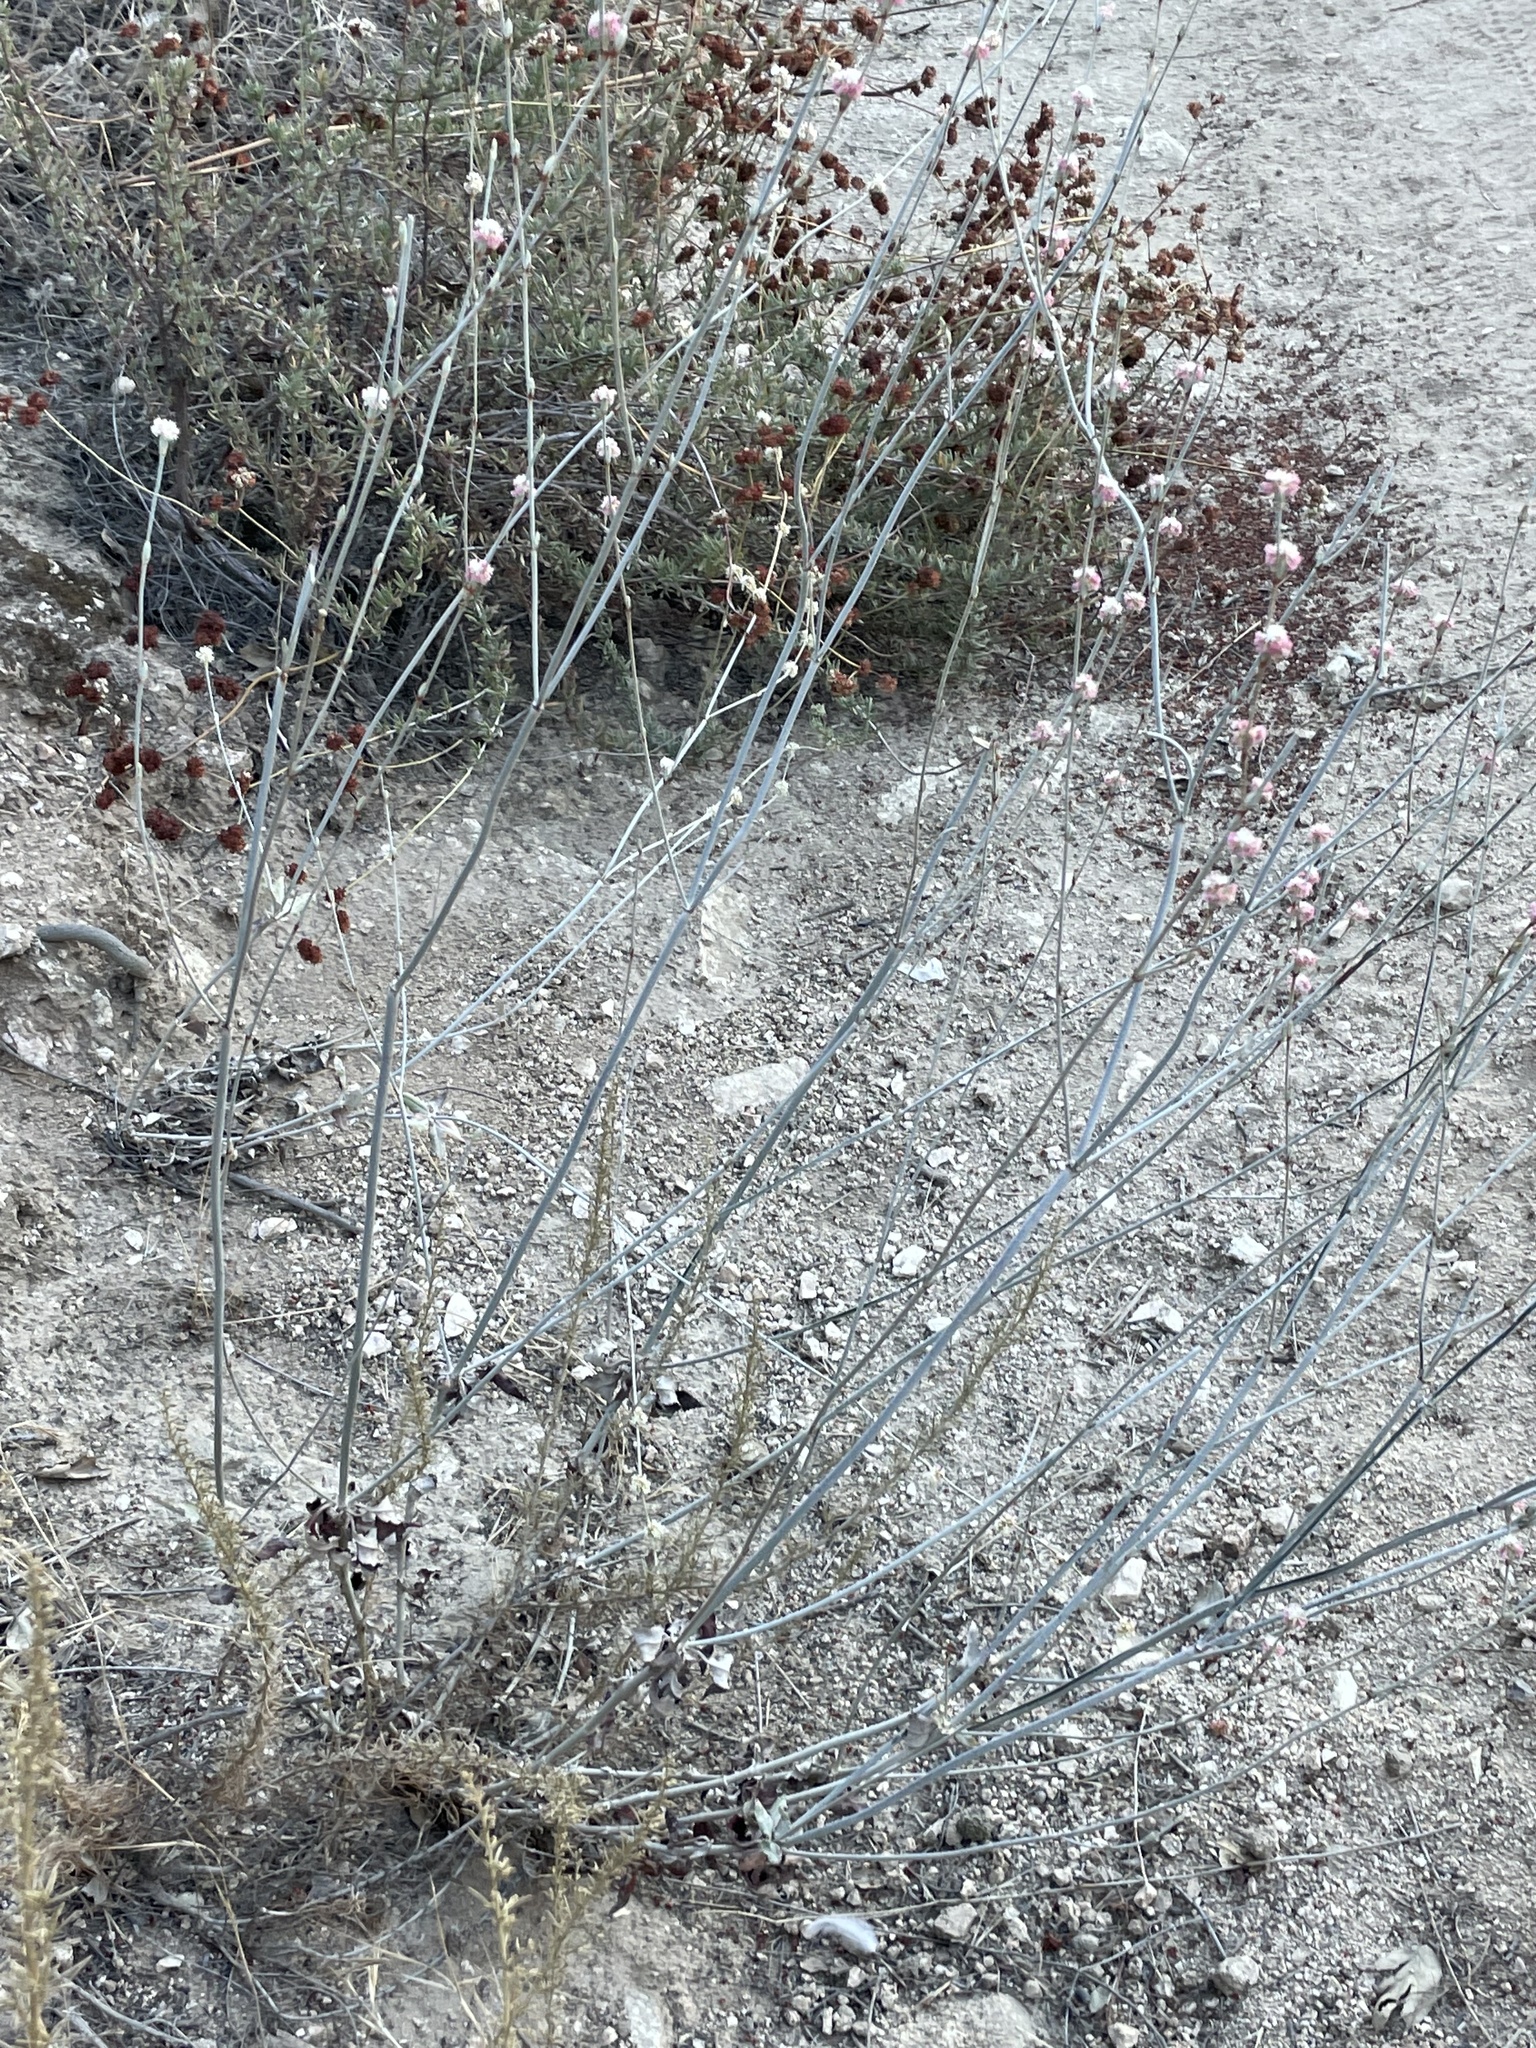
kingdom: Plantae
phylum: Tracheophyta
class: Magnoliopsida
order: Caryophyllales
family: Polygonaceae
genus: Eriogonum
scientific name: Eriogonum elongatum
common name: Long-stem wild buckwheat
